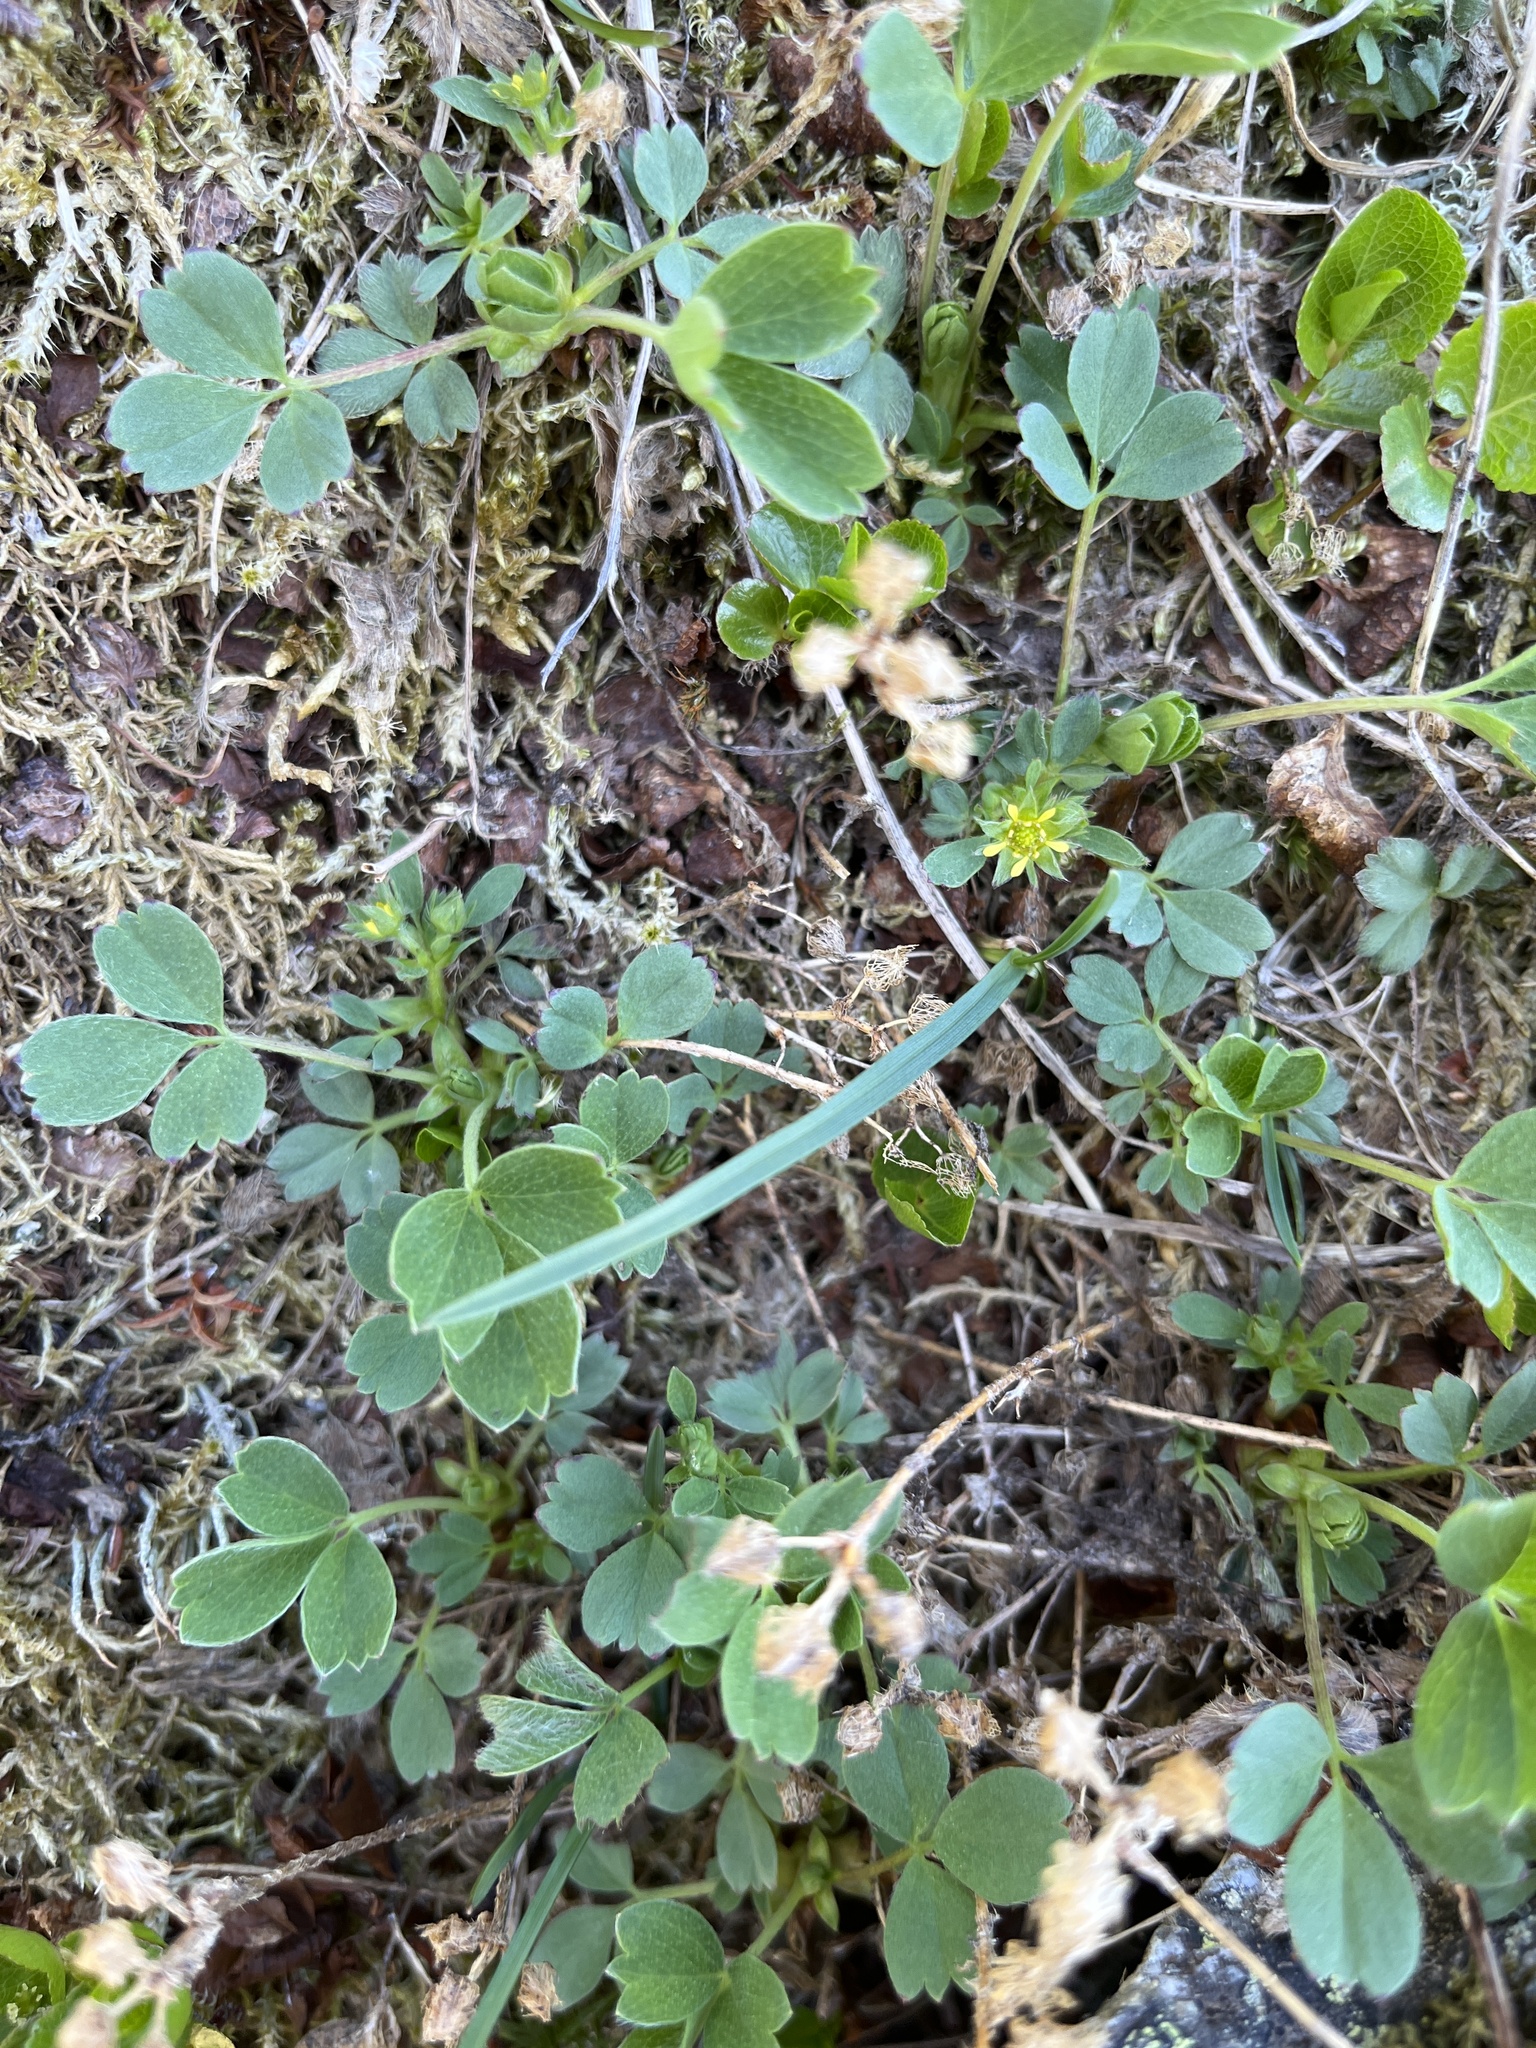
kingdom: Plantae
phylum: Tracheophyta
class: Magnoliopsida
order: Rosales
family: Rosaceae
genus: Sibbaldia
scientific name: Sibbaldia procumbens
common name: Creeping sibbaldia
